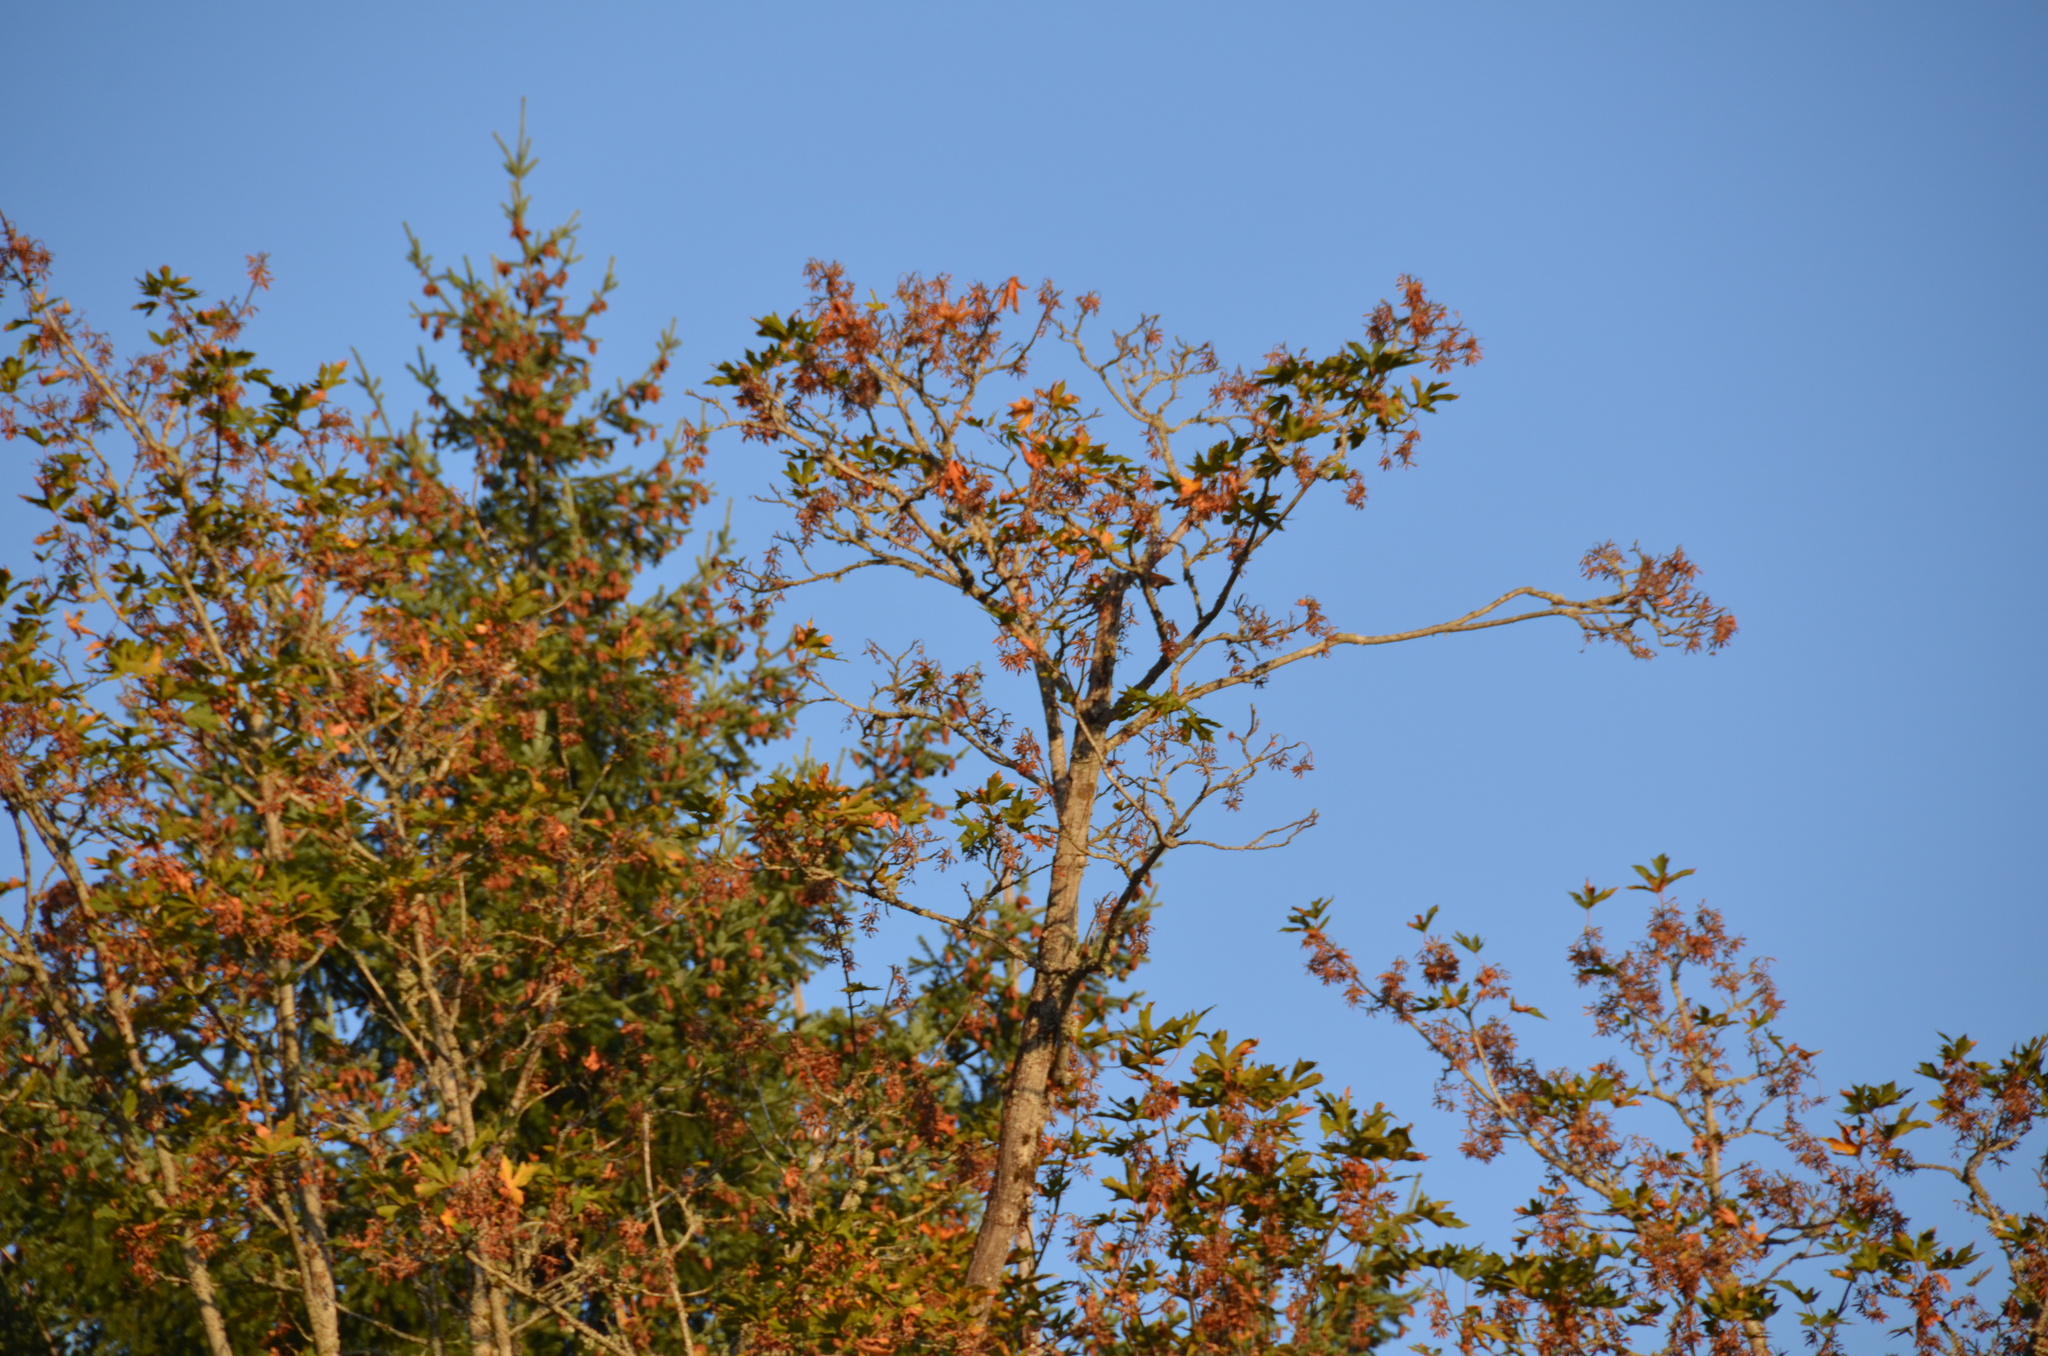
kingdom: Animalia
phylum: Chordata
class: Aves
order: Passeriformes
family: Sturnidae
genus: Sturnus
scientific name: Sturnus vulgaris
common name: Common starling
